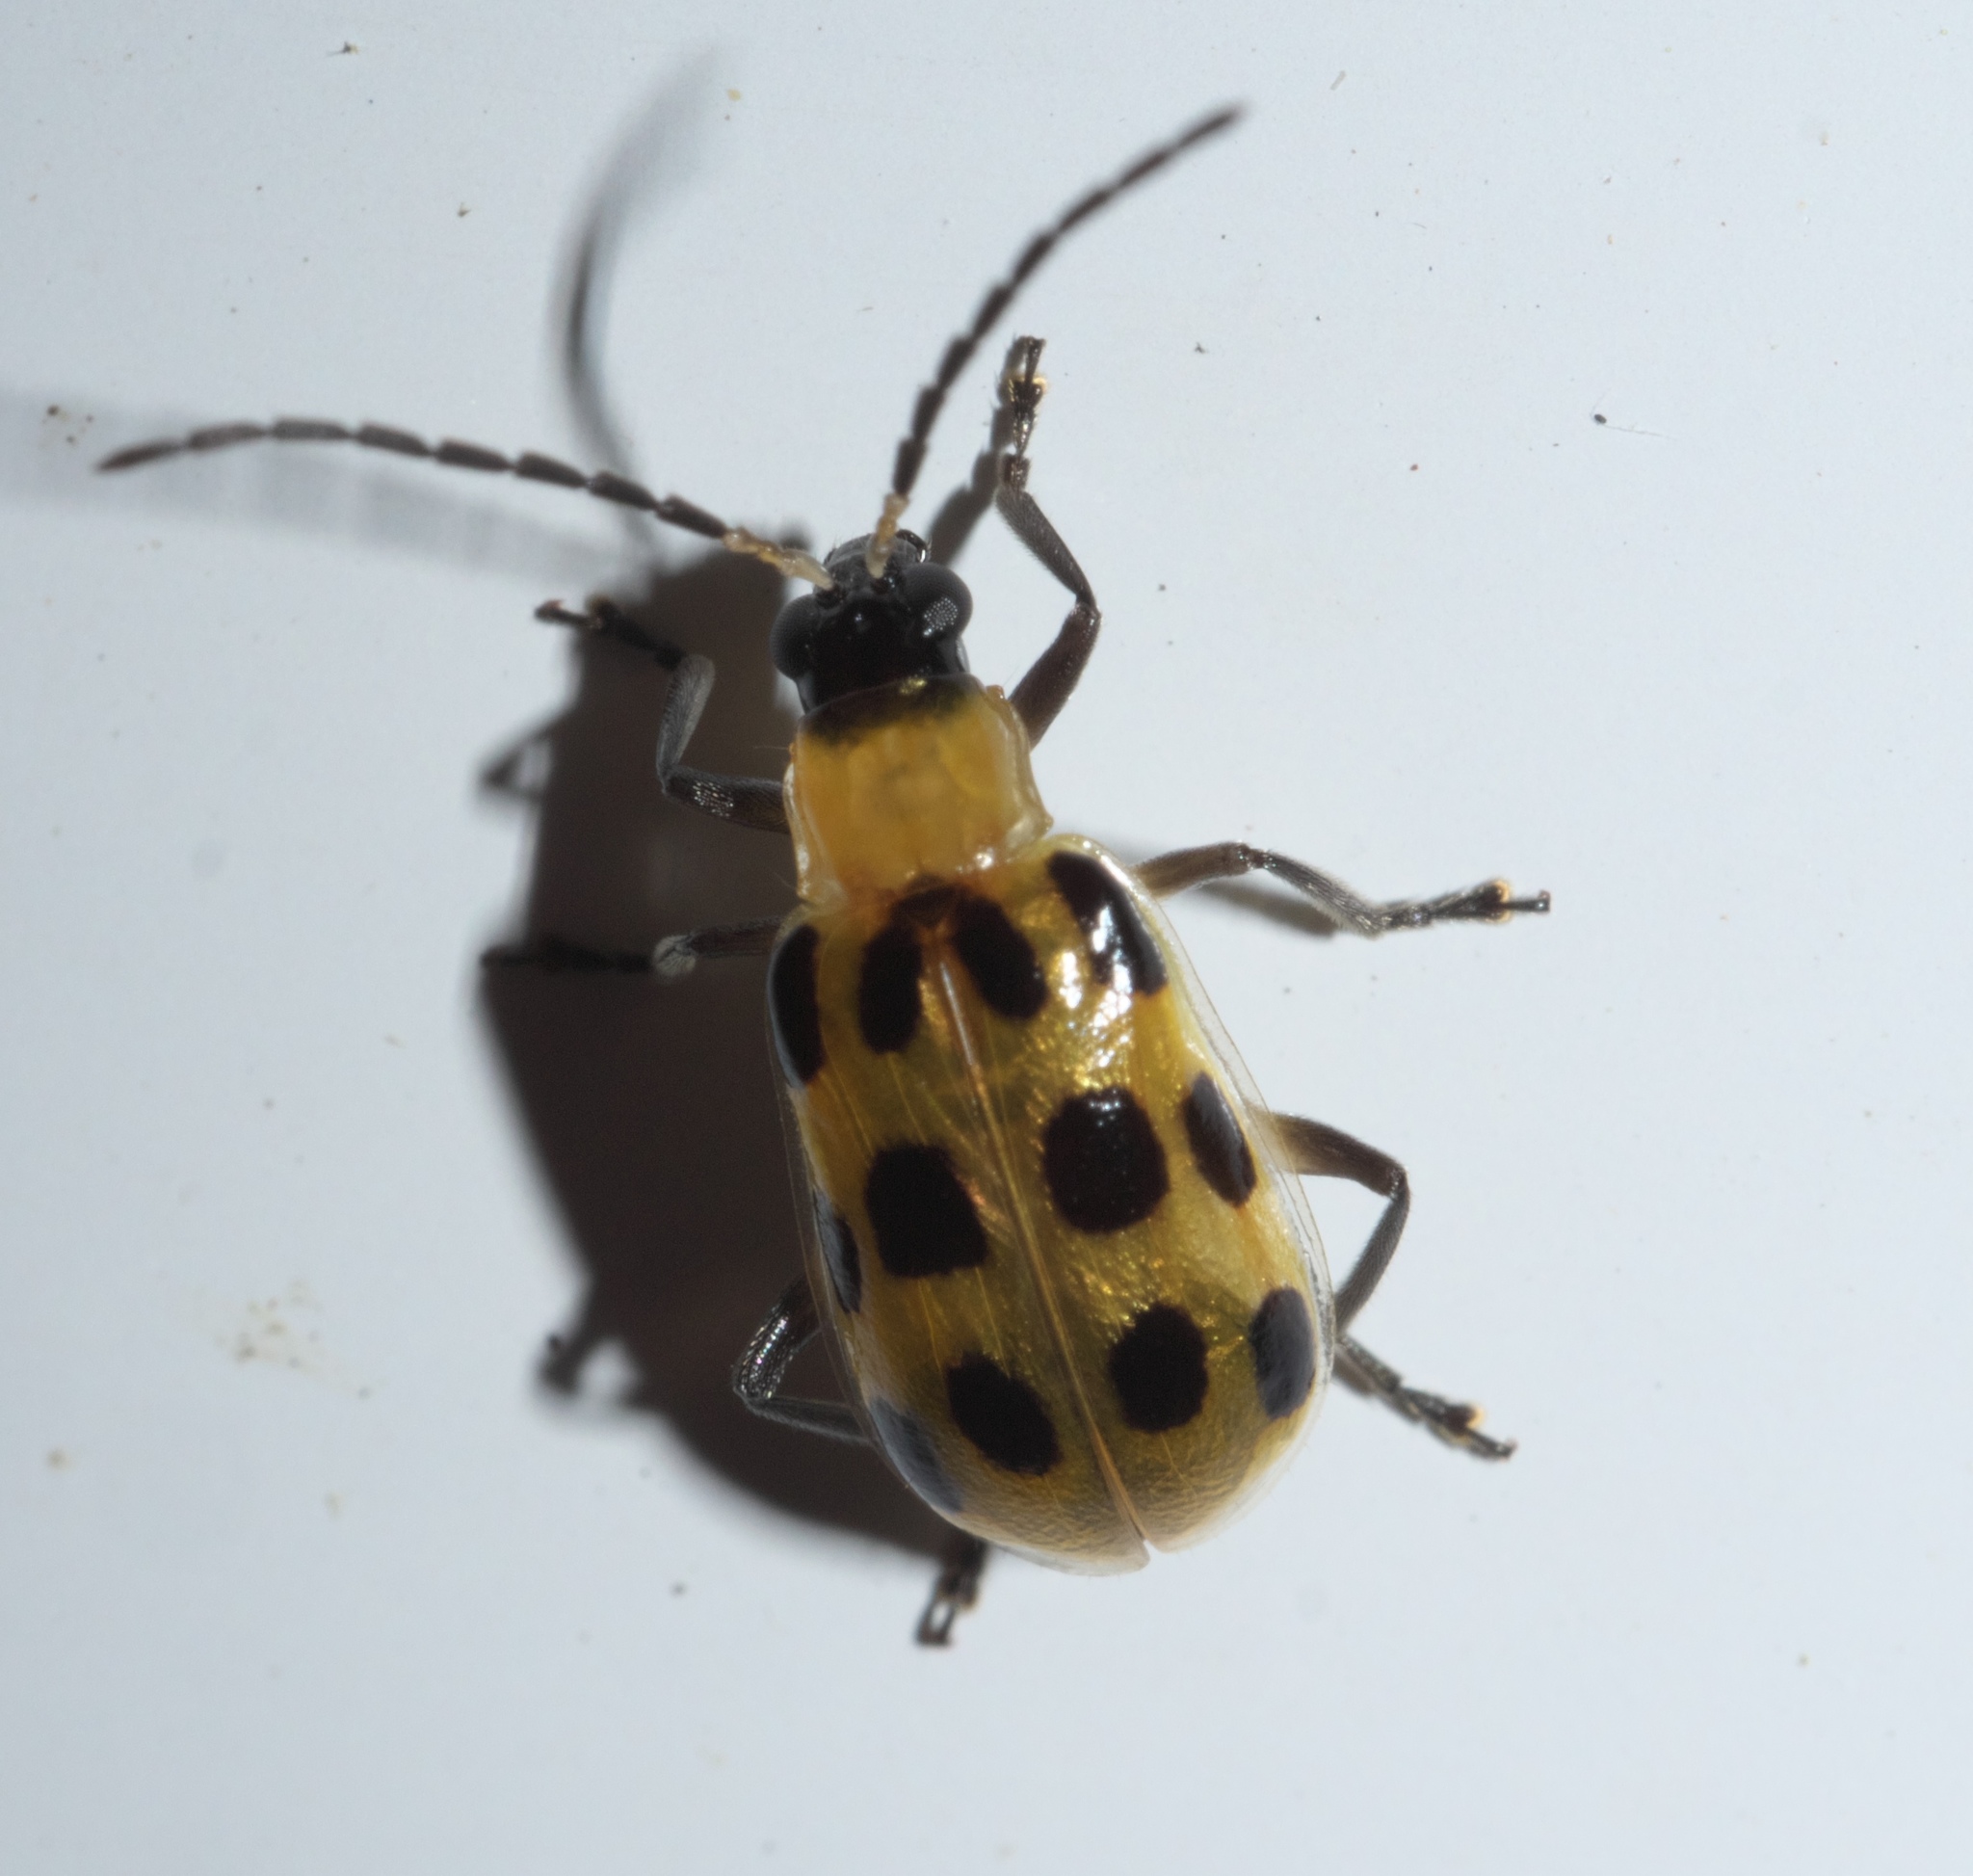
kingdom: Animalia
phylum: Arthropoda
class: Insecta
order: Coleoptera
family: Chrysomelidae
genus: Diabrotica
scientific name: Diabrotica undecimpunctata
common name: Spotted cucumber beetle
